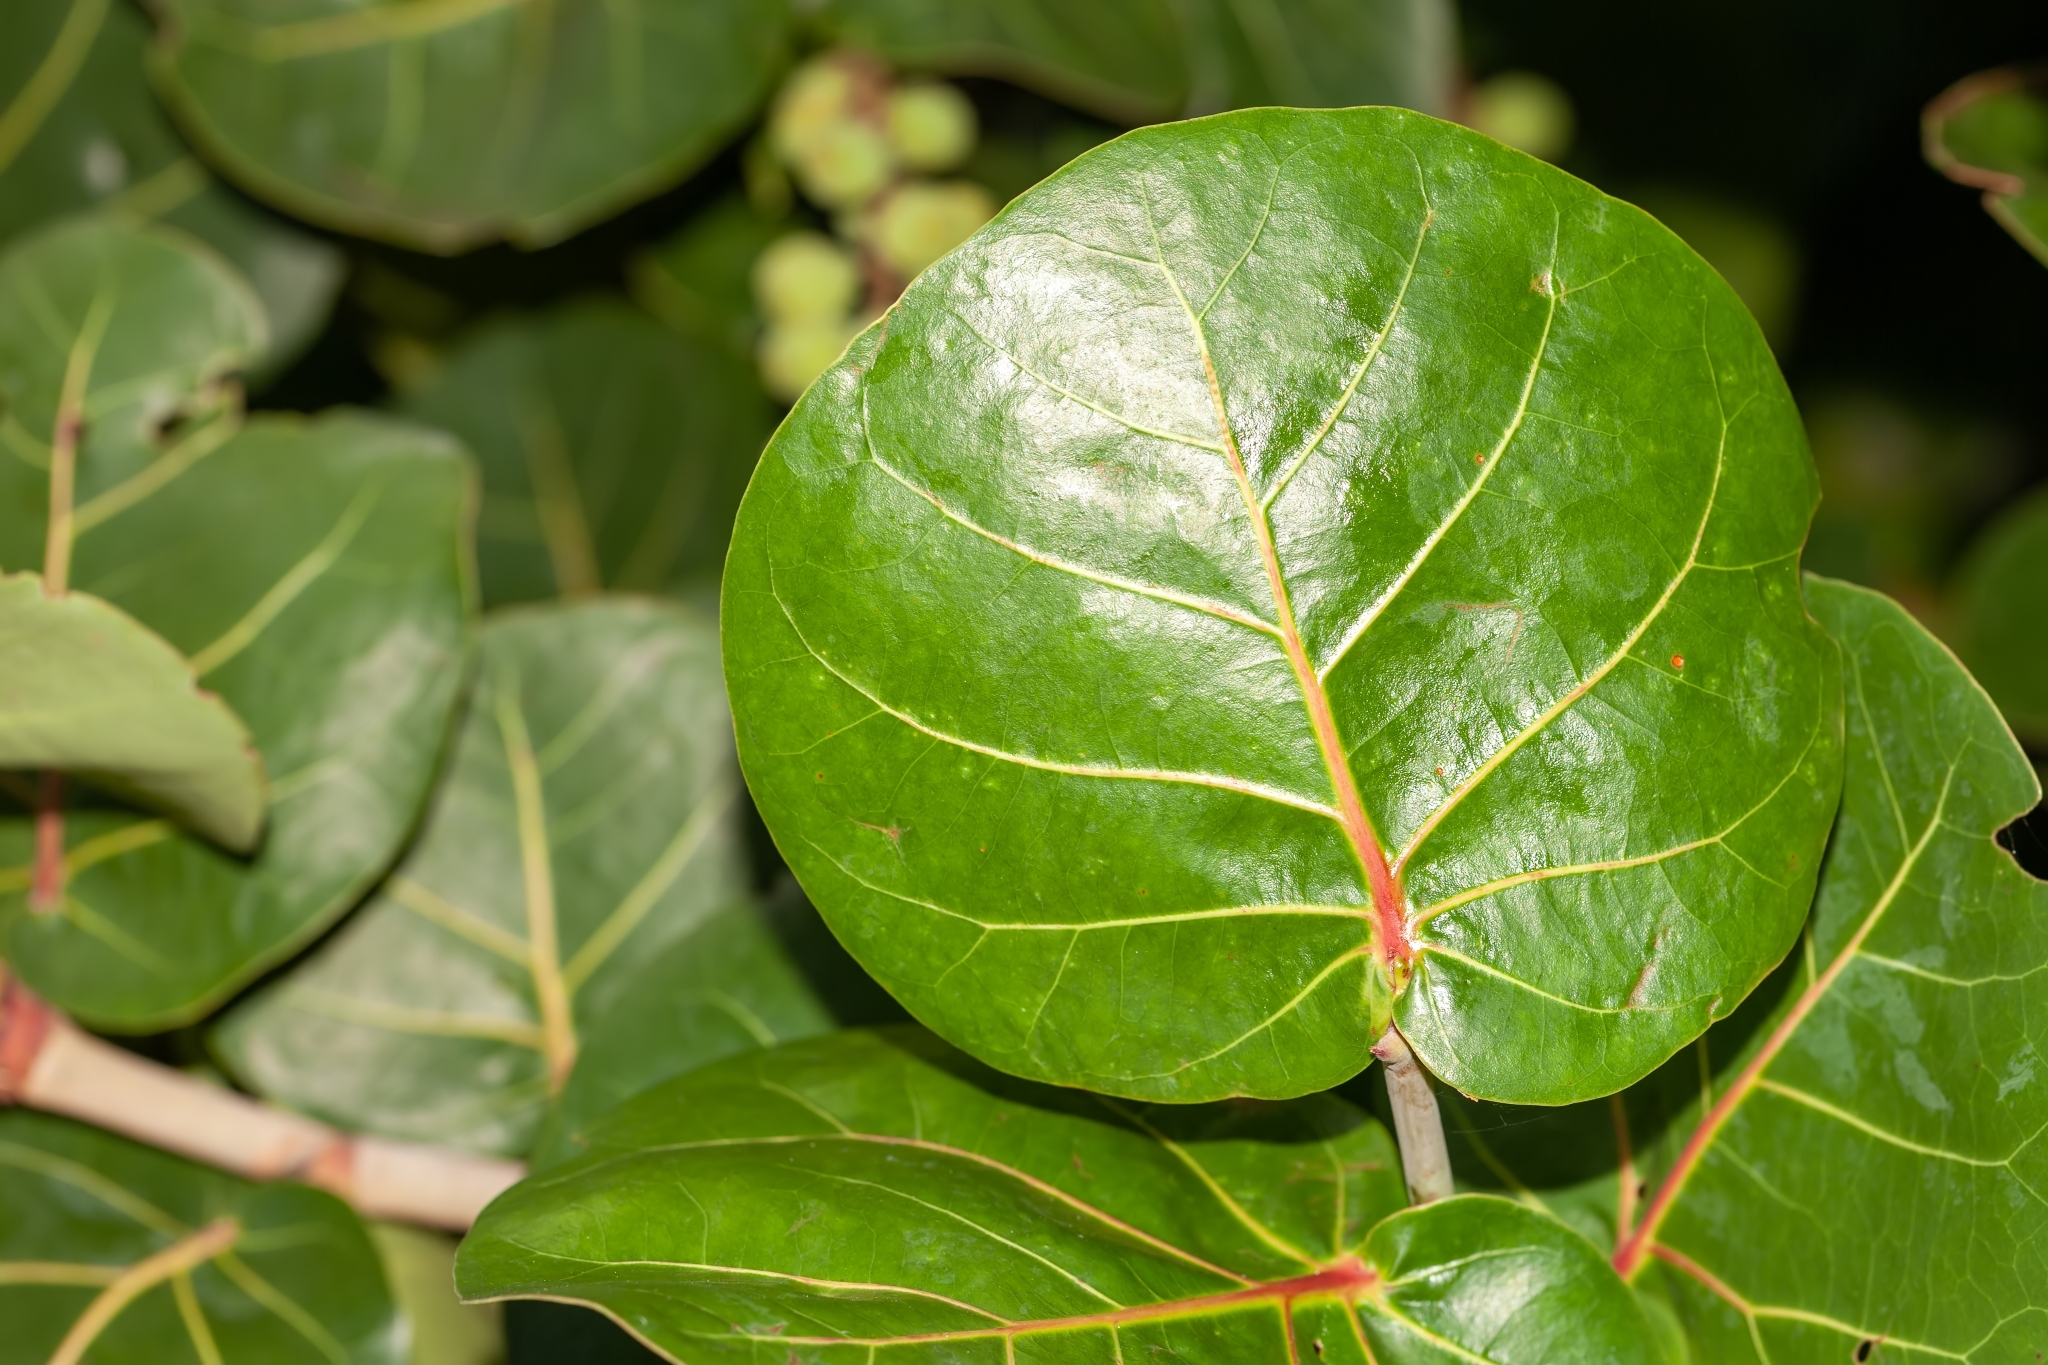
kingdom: Plantae
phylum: Tracheophyta
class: Magnoliopsida
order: Caryophyllales
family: Polygonaceae
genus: Coccoloba
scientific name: Coccoloba uvifera
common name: Seagrape
